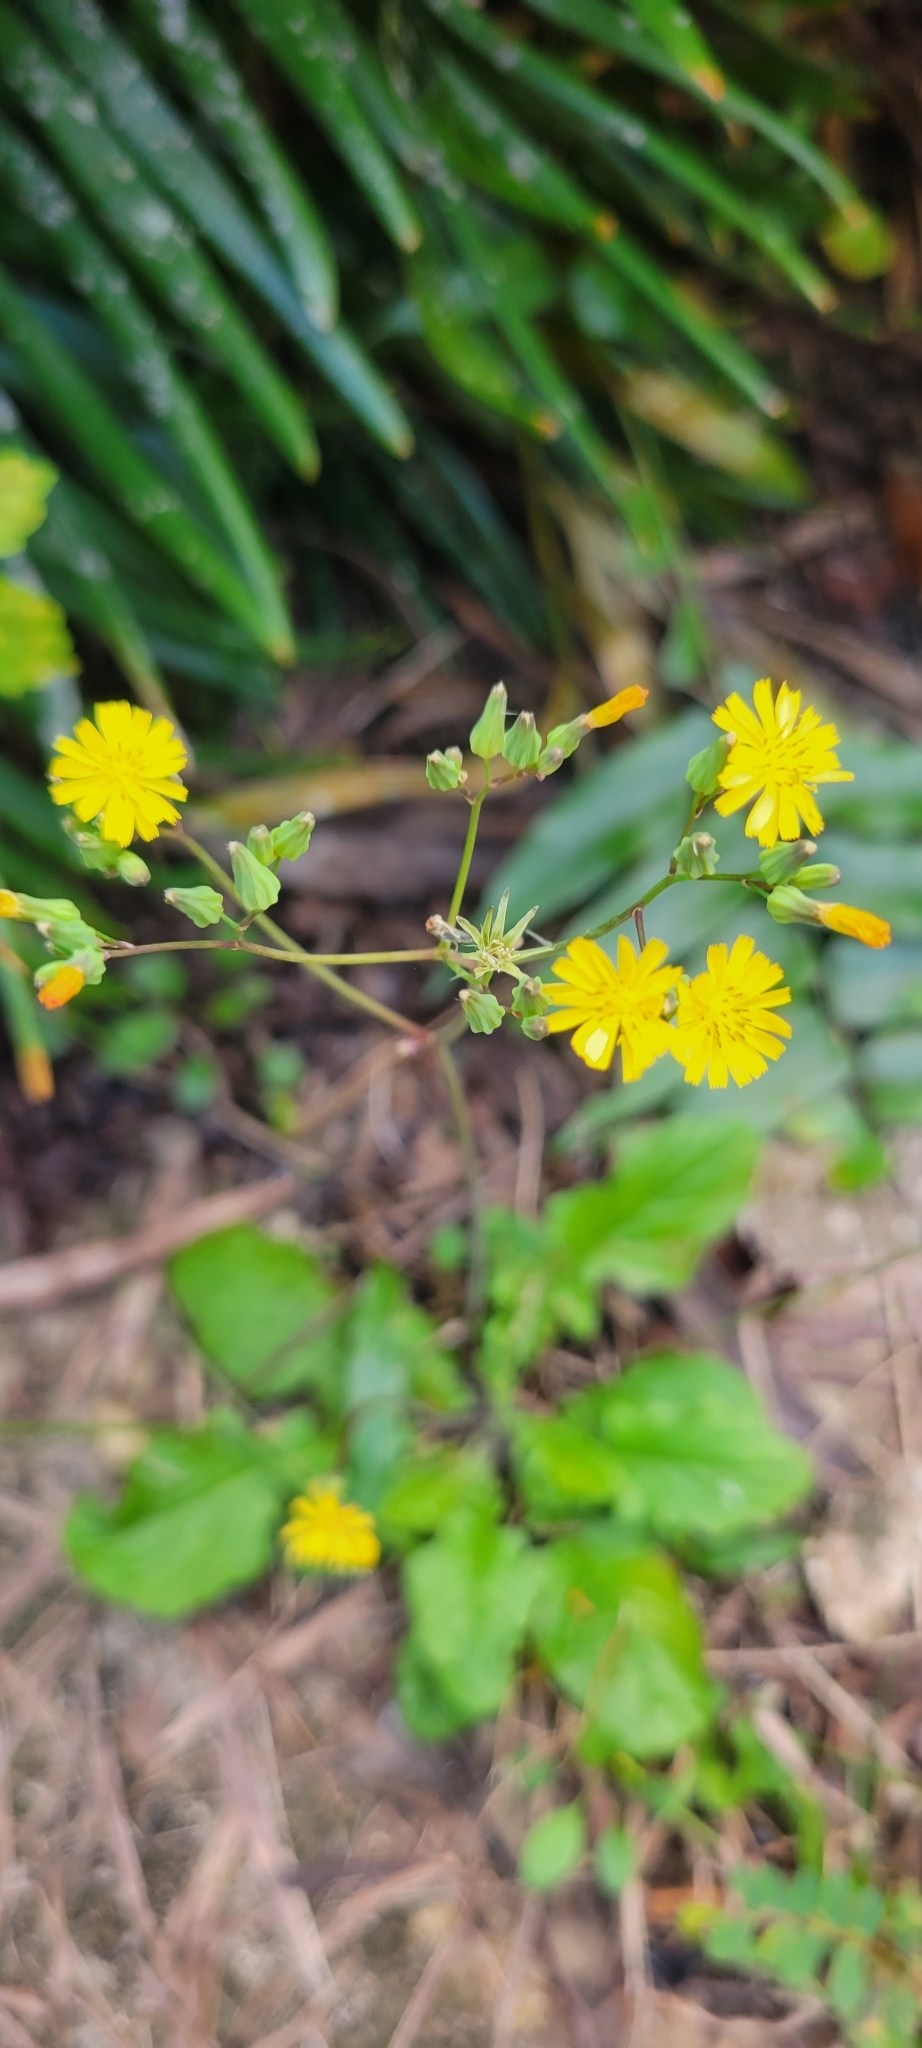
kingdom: Plantae
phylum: Tracheophyta
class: Magnoliopsida
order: Asterales
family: Asteraceae
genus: Youngia
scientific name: Youngia japonica
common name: Oriental false hawksbeard
